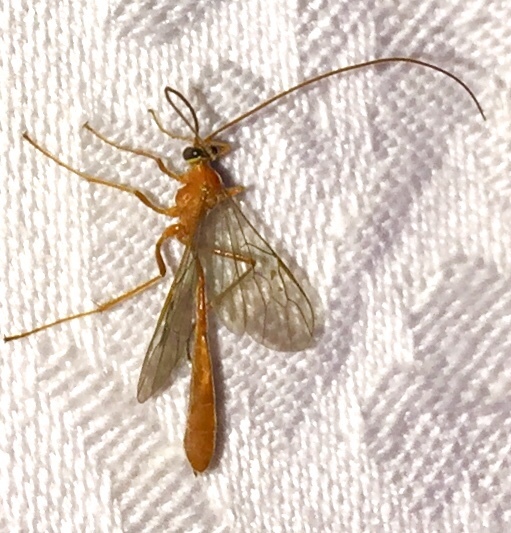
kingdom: Animalia
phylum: Arthropoda
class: Insecta
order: Hymenoptera
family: Ichneumonidae
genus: Enicospilus
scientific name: Enicospilus purgatus
